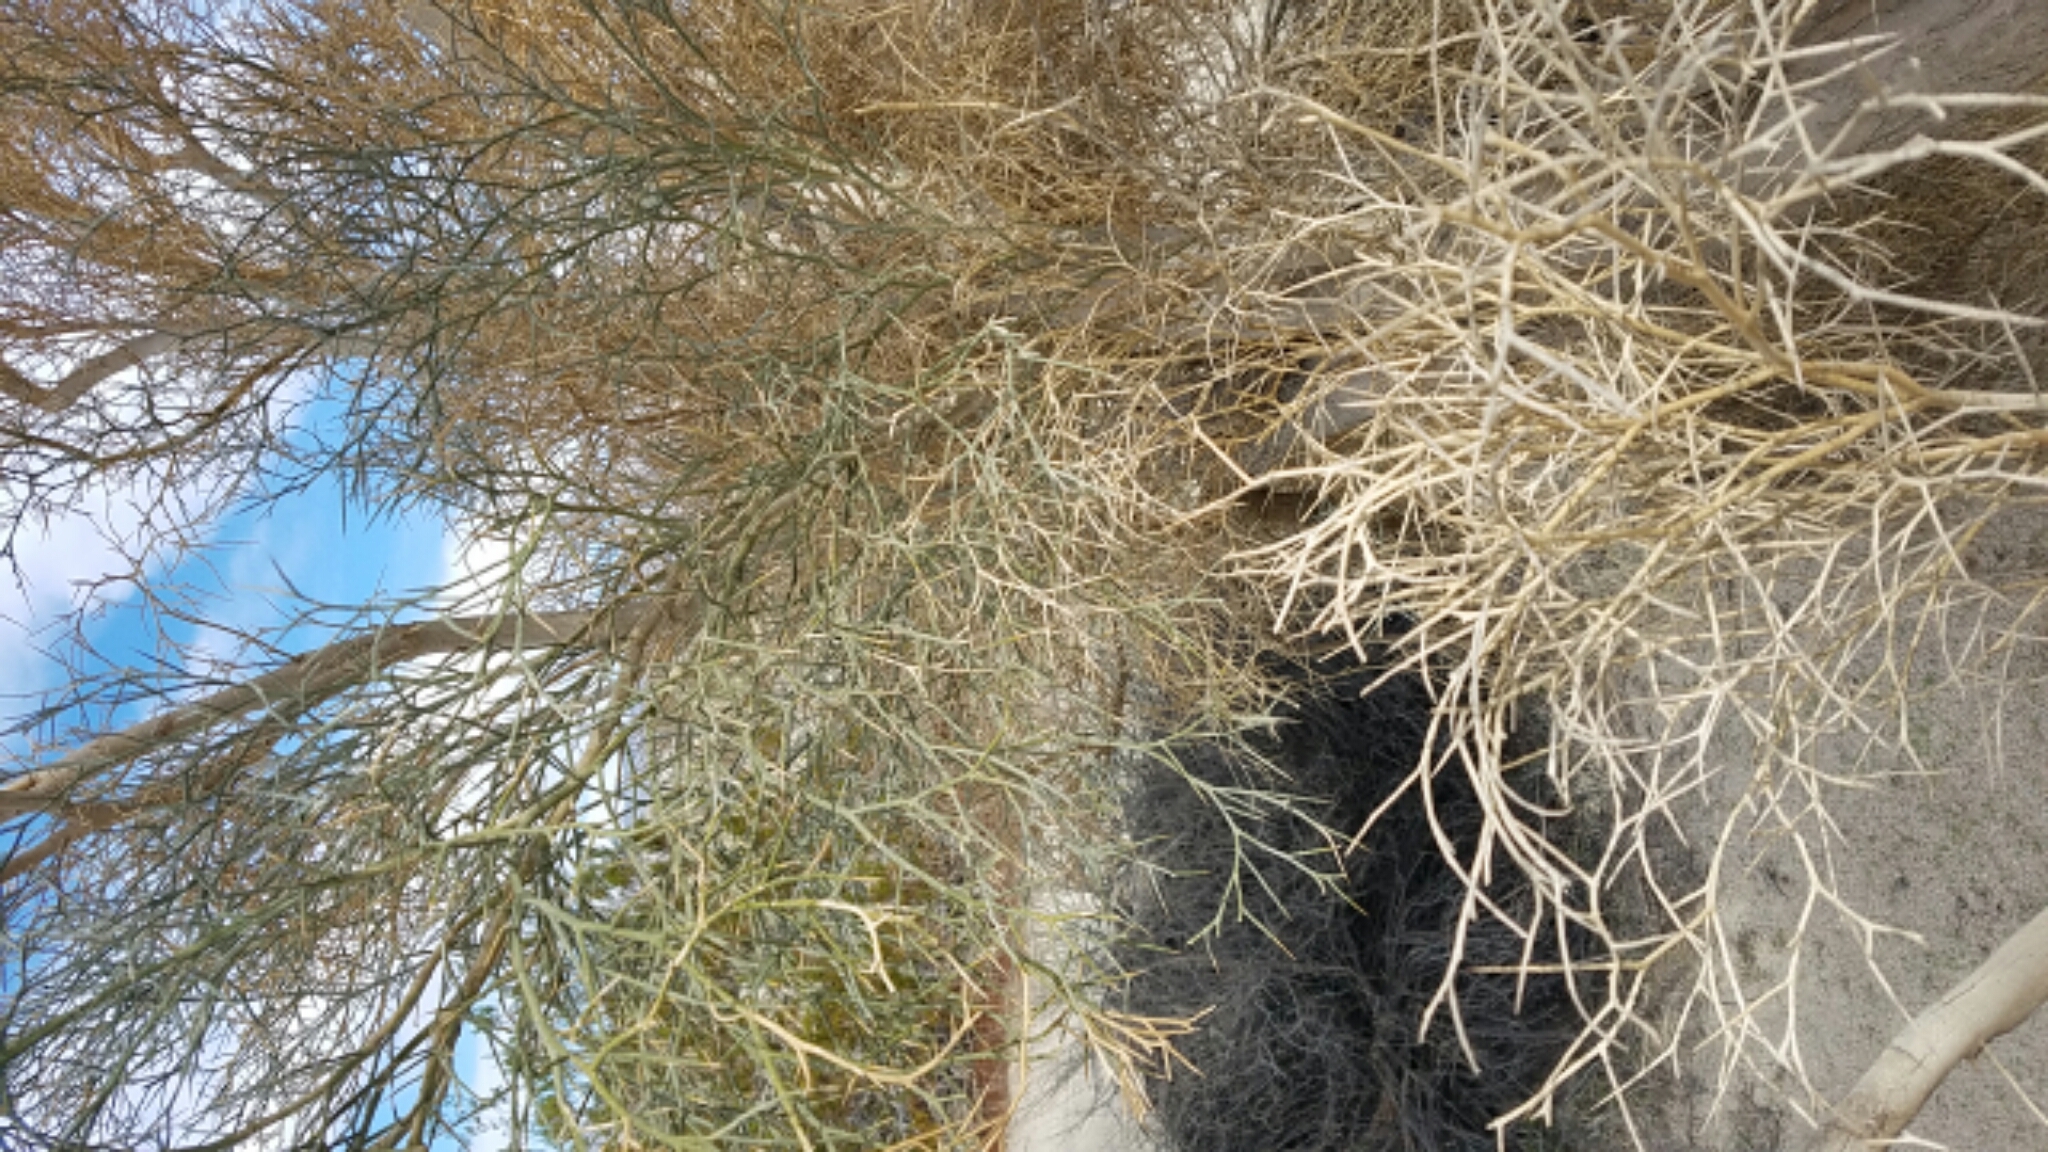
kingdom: Plantae
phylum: Tracheophyta
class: Magnoliopsida
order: Fabales
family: Fabaceae
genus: Psorothamnus
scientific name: Psorothamnus spinosus
